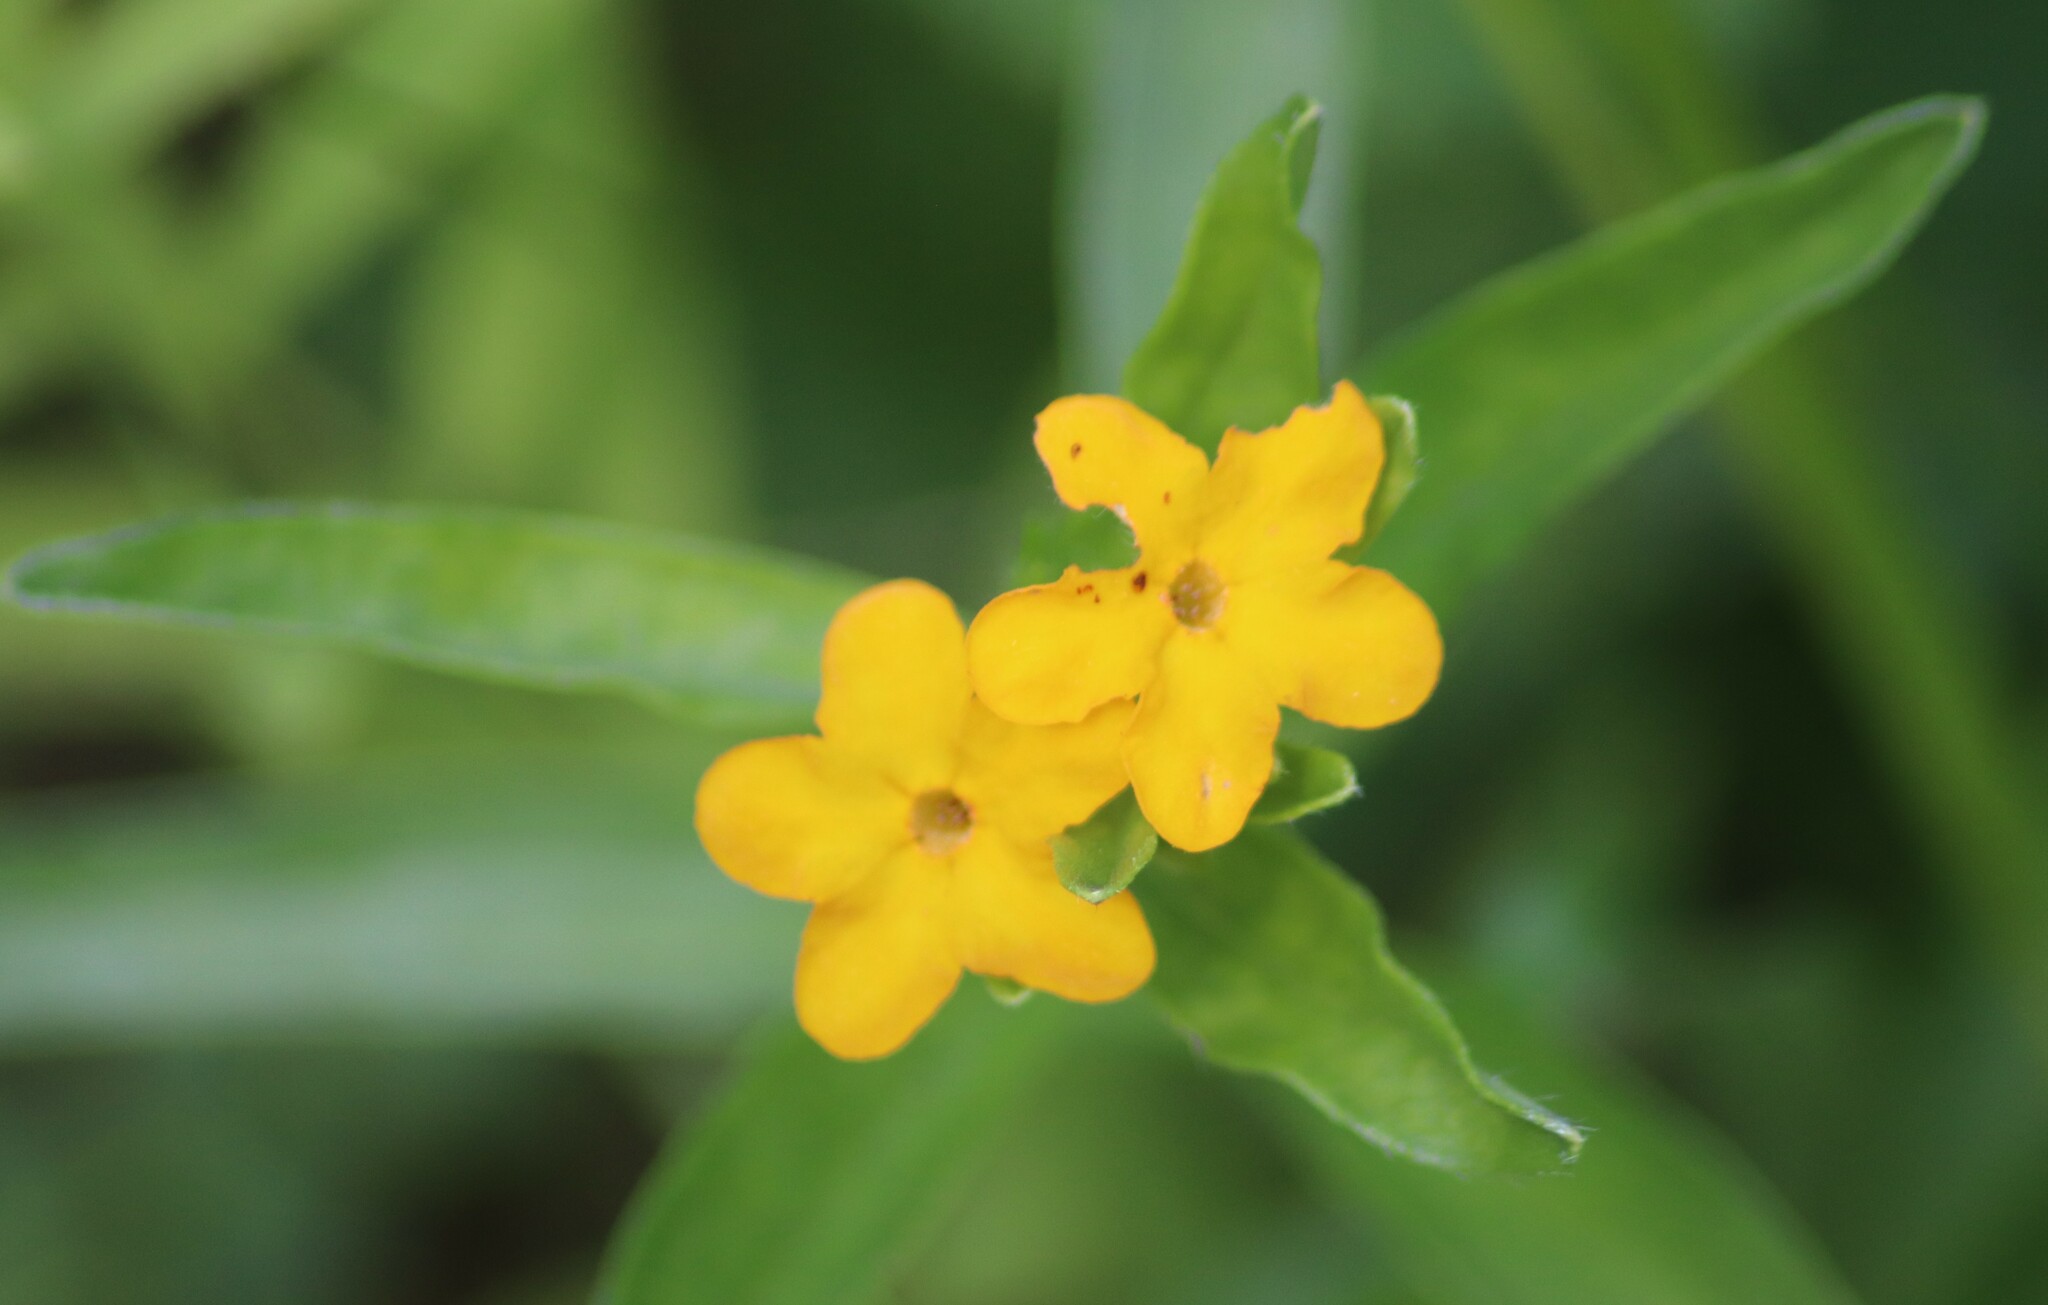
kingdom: Plantae
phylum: Tracheophyta
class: Magnoliopsida
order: Boraginales
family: Boraginaceae
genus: Lithospermum
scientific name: Lithospermum canescens
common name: Hoary puccoon
